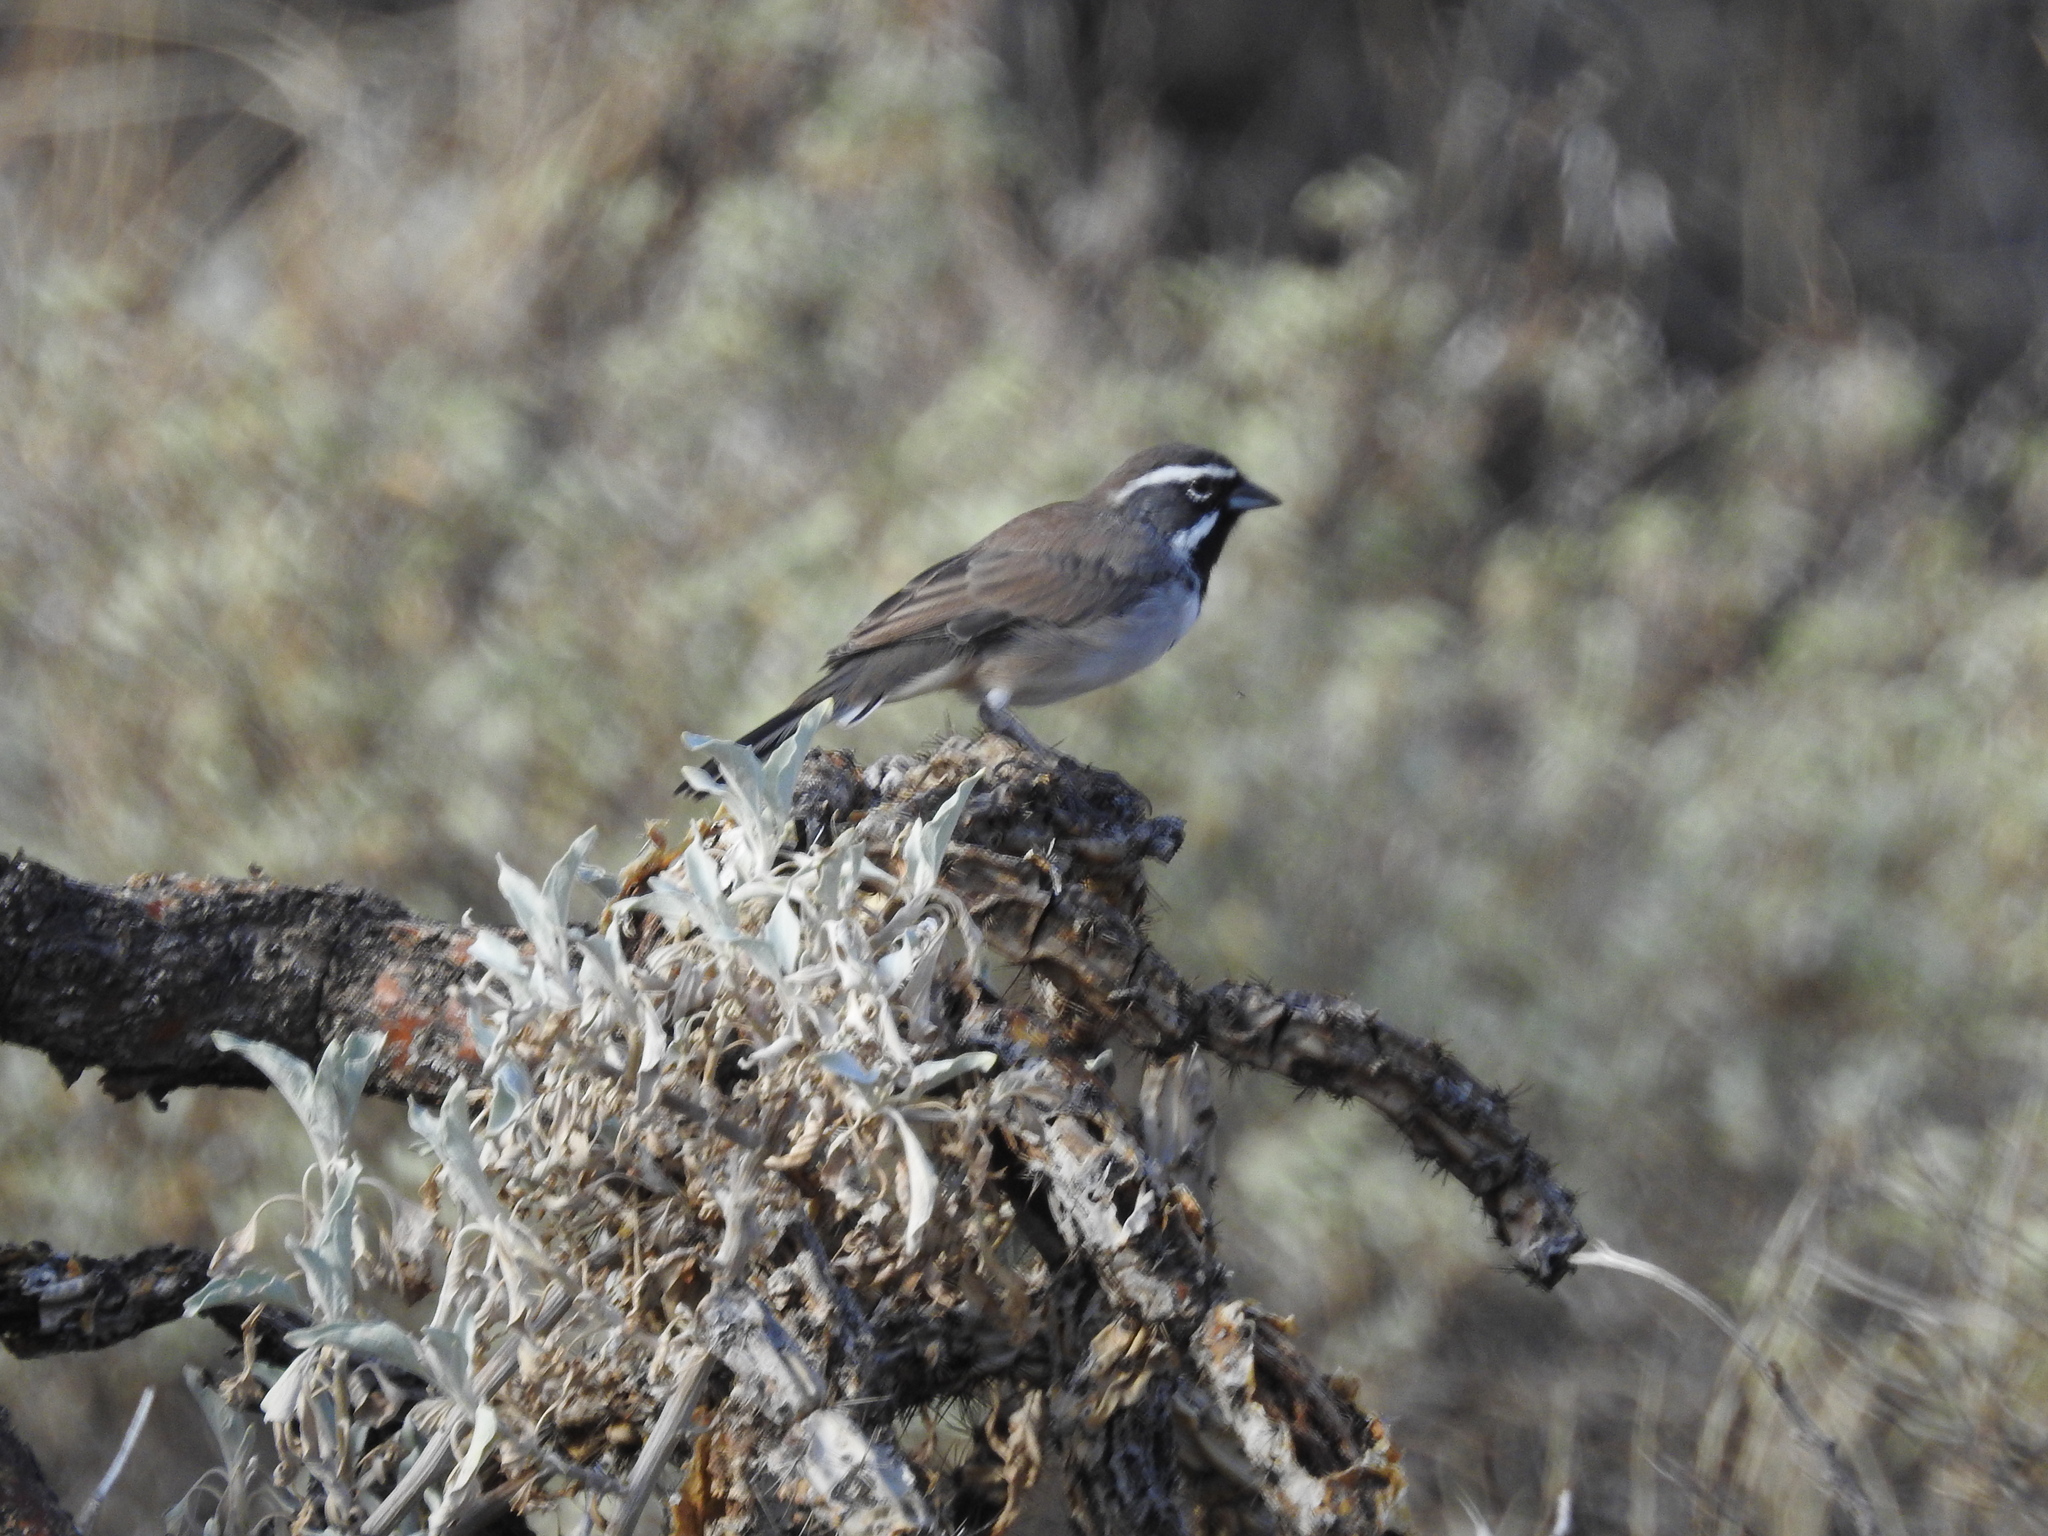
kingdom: Animalia
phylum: Chordata
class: Aves
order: Passeriformes
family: Passerellidae
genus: Amphispiza
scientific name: Amphispiza bilineata
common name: Black-throated sparrow
